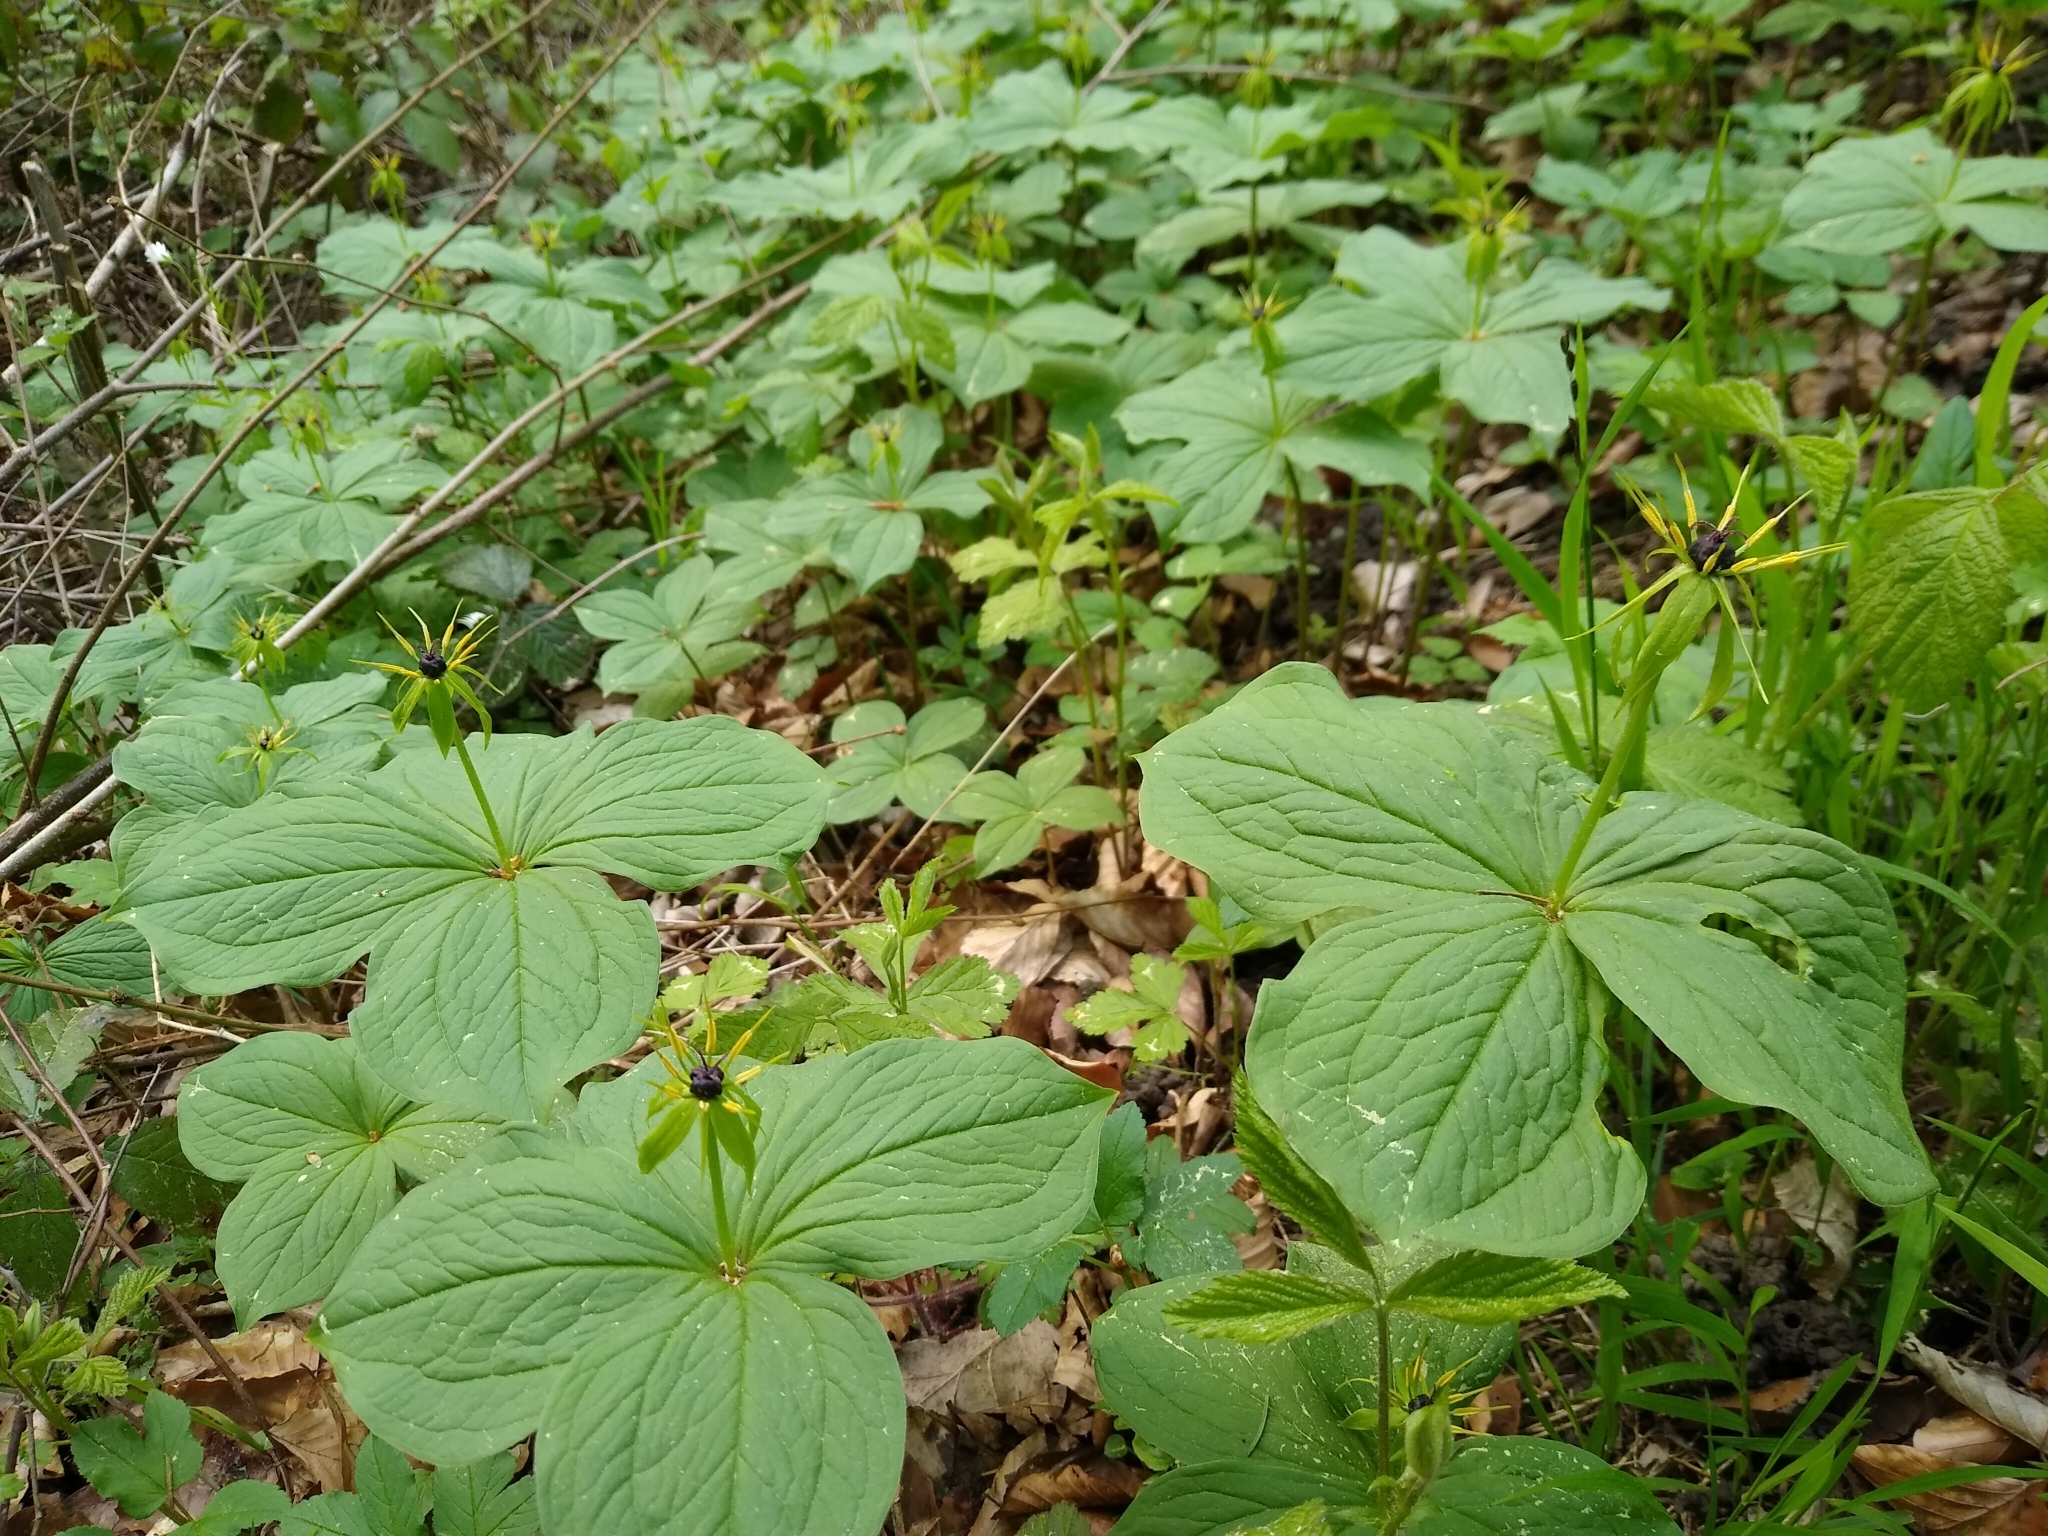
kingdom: Plantae
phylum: Tracheophyta
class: Liliopsida
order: Liliales
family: Melanthiaceae
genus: Paris
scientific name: Paris quadrifolia
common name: Herb-paris
